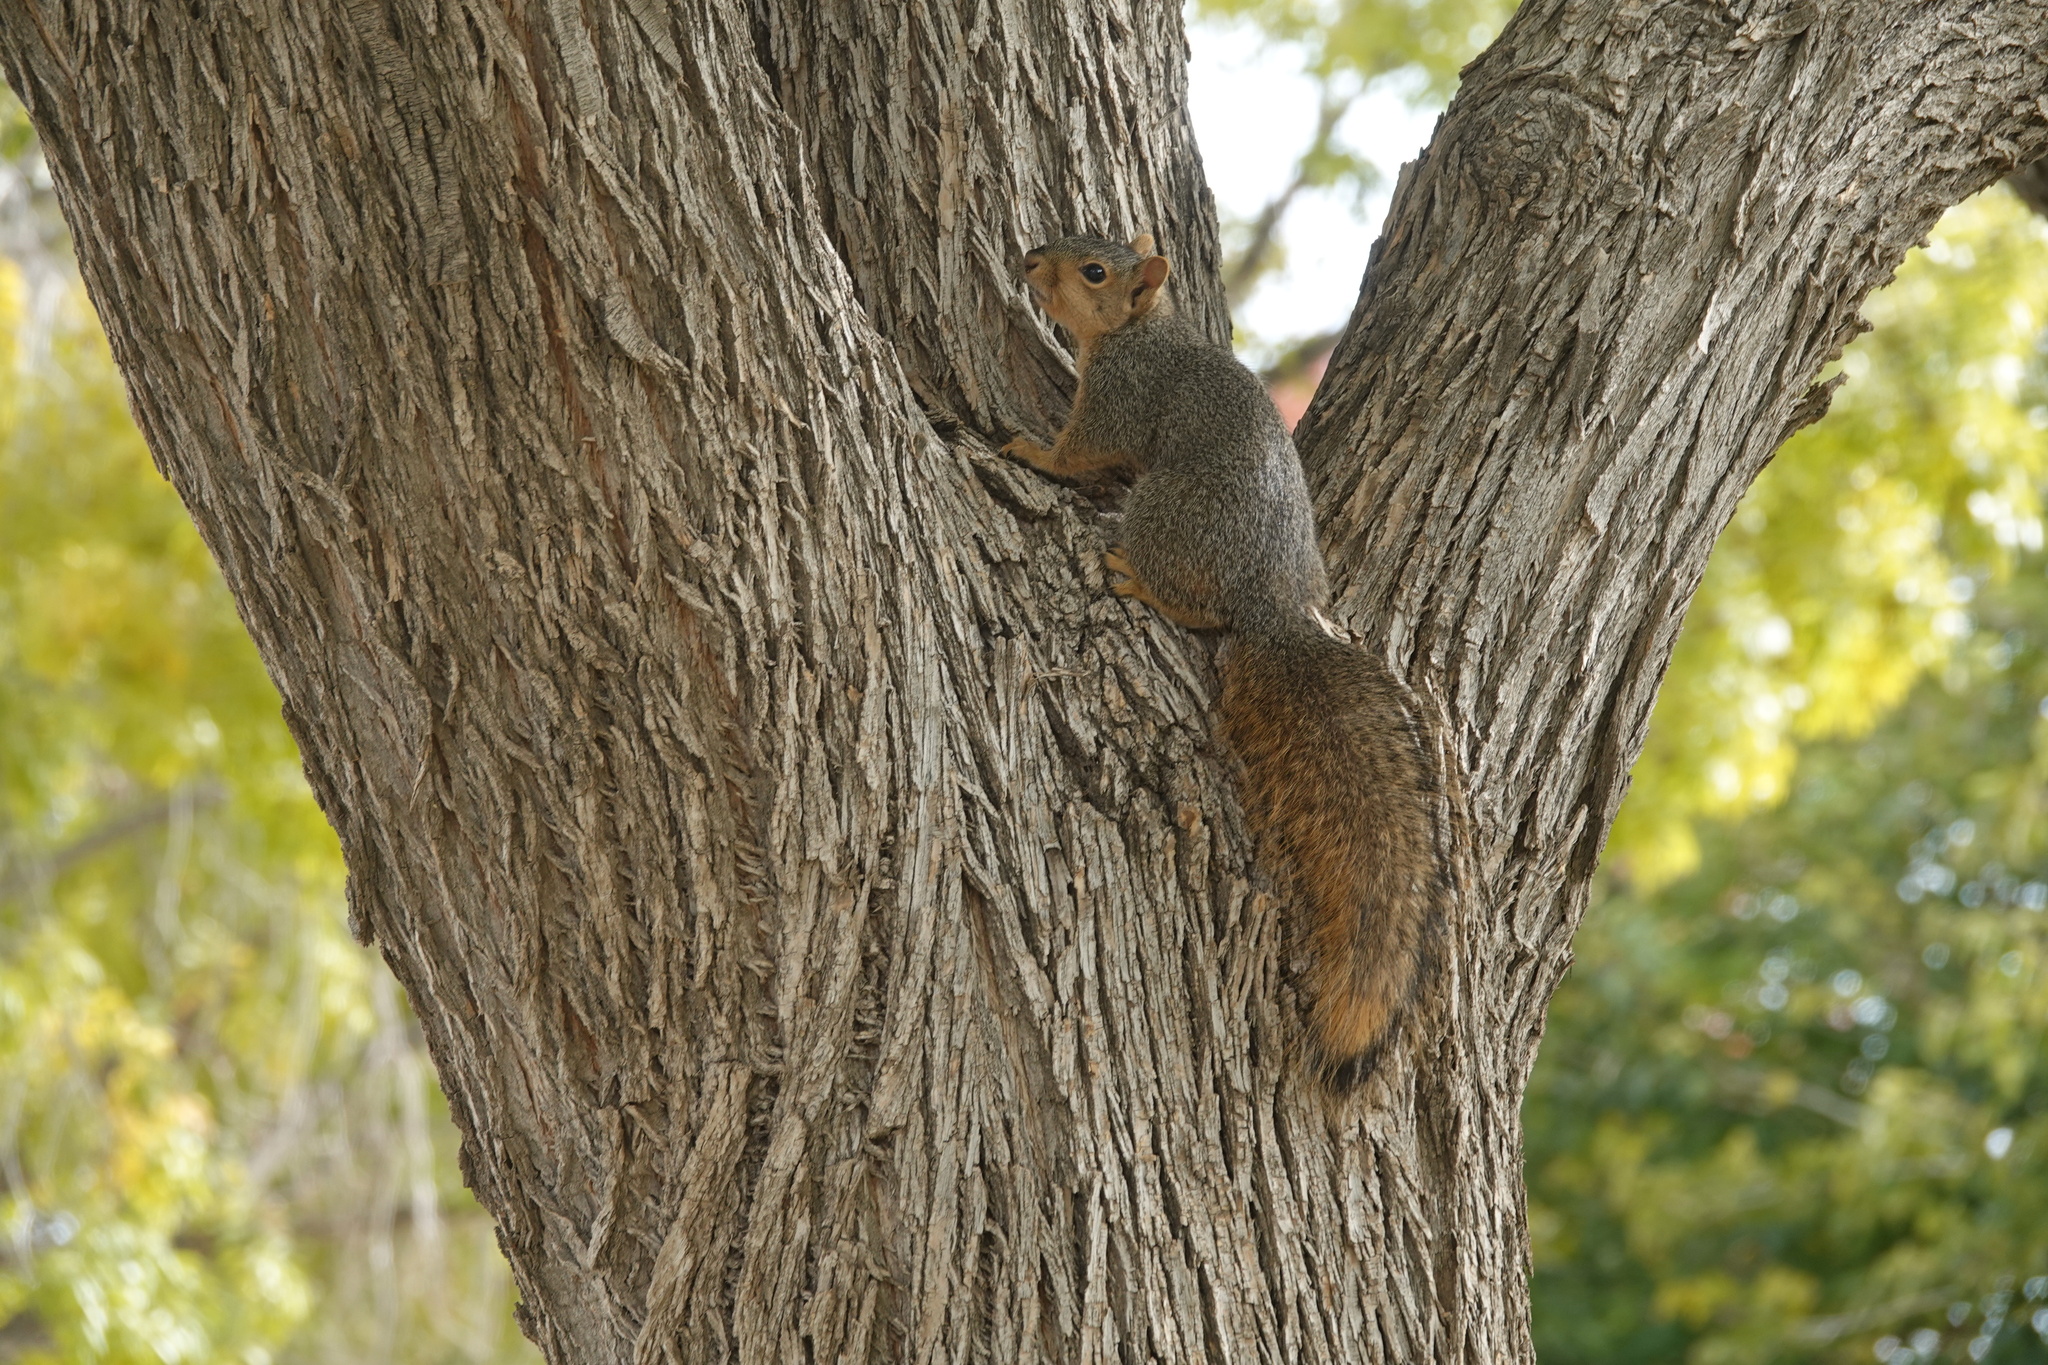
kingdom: Animalia
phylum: Chordata
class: Mammalia
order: Rodentia
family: Sciuridae
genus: Sciurus
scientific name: Sciurus niger
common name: Fox squirrel
